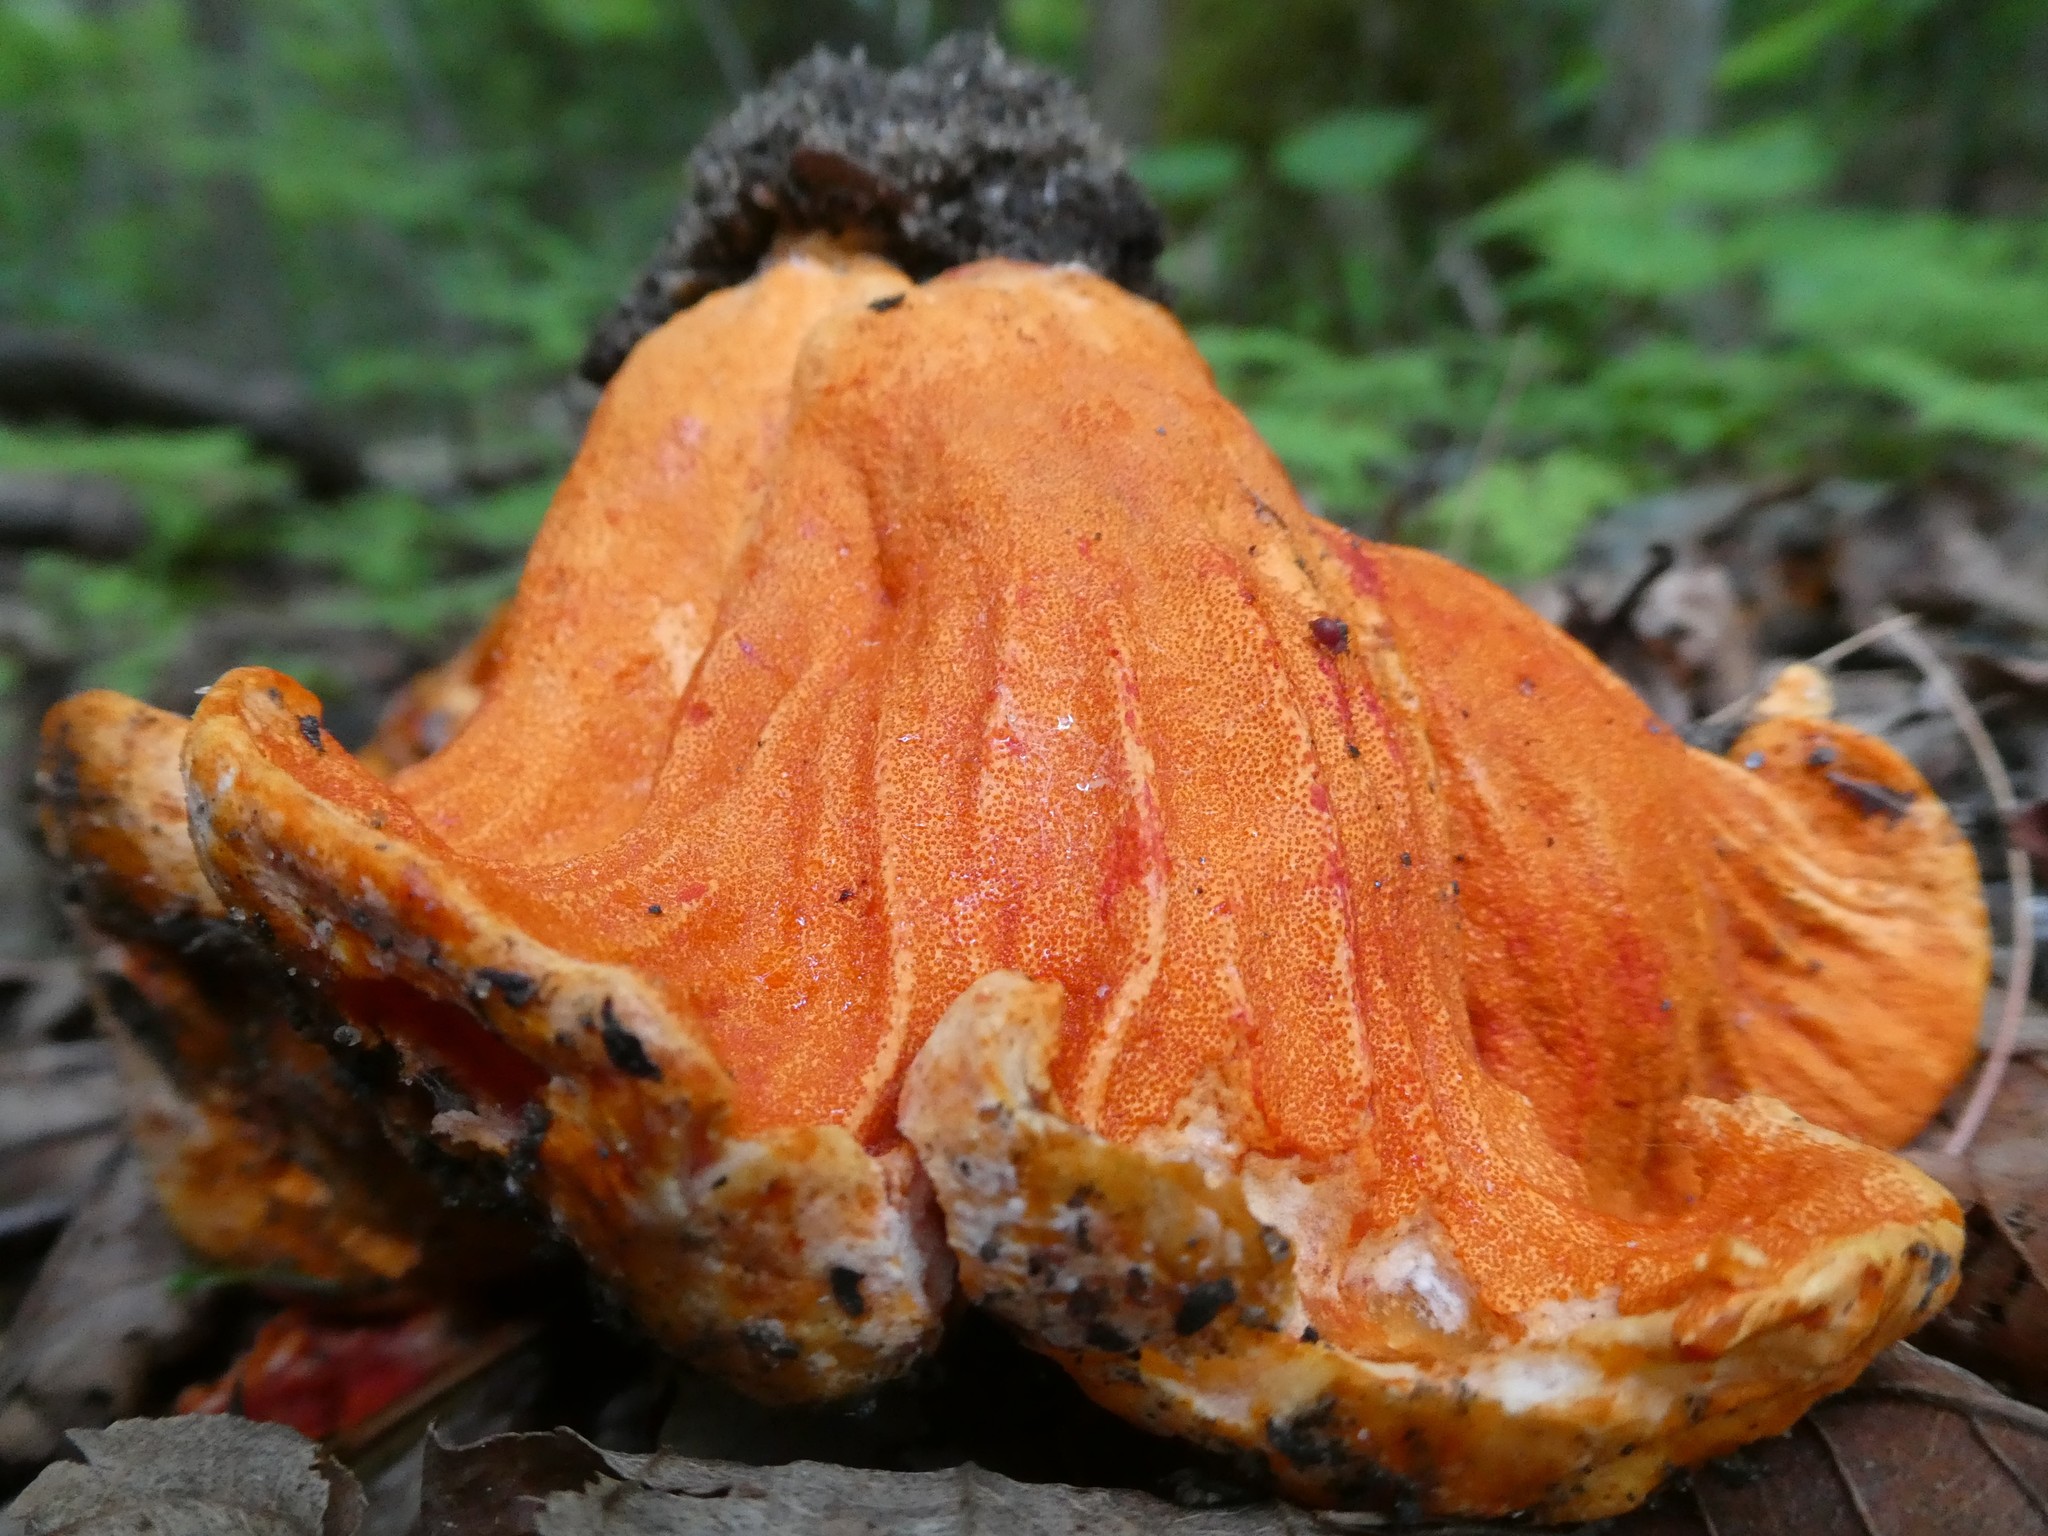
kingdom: Fungi
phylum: Ascomycota
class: Sordariomycetes
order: Hypocreales
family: Hypocreaceae
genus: Hypomyces
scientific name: Hypomyces lactifluorum
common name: Lobster mushroom
